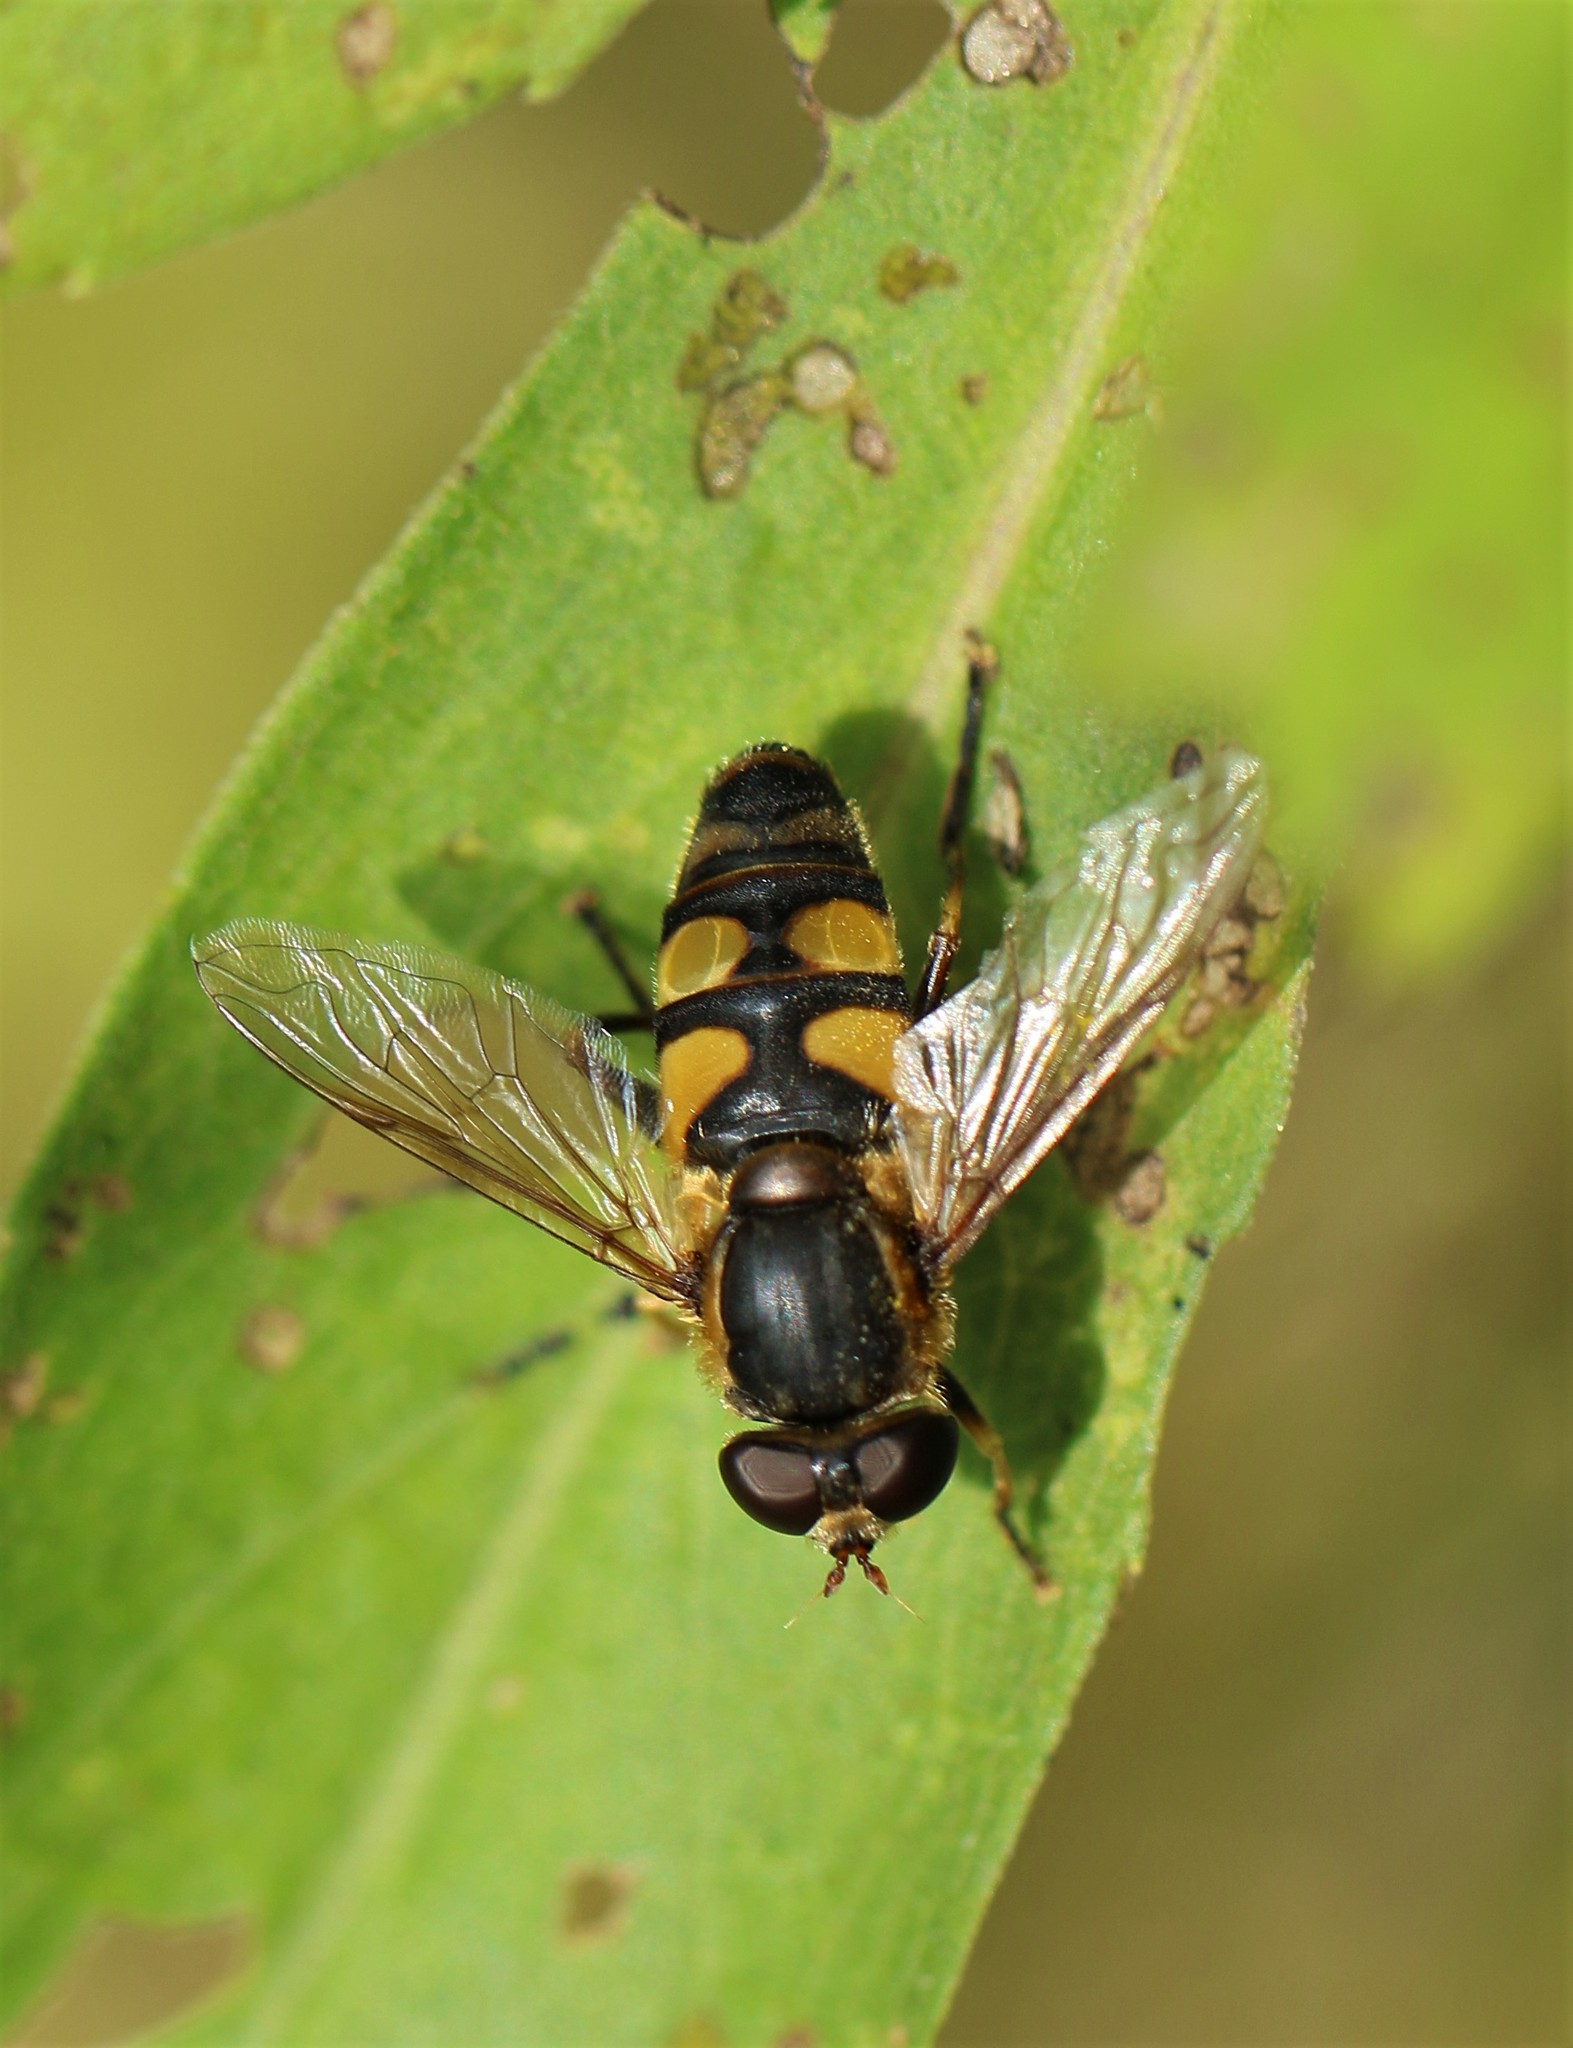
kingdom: Animalia
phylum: Arthropoda
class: Insecta
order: Diptera
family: Syrphidae
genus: Helophilus
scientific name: Helophilus fasciatus
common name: Narrow-headed marsh fly
